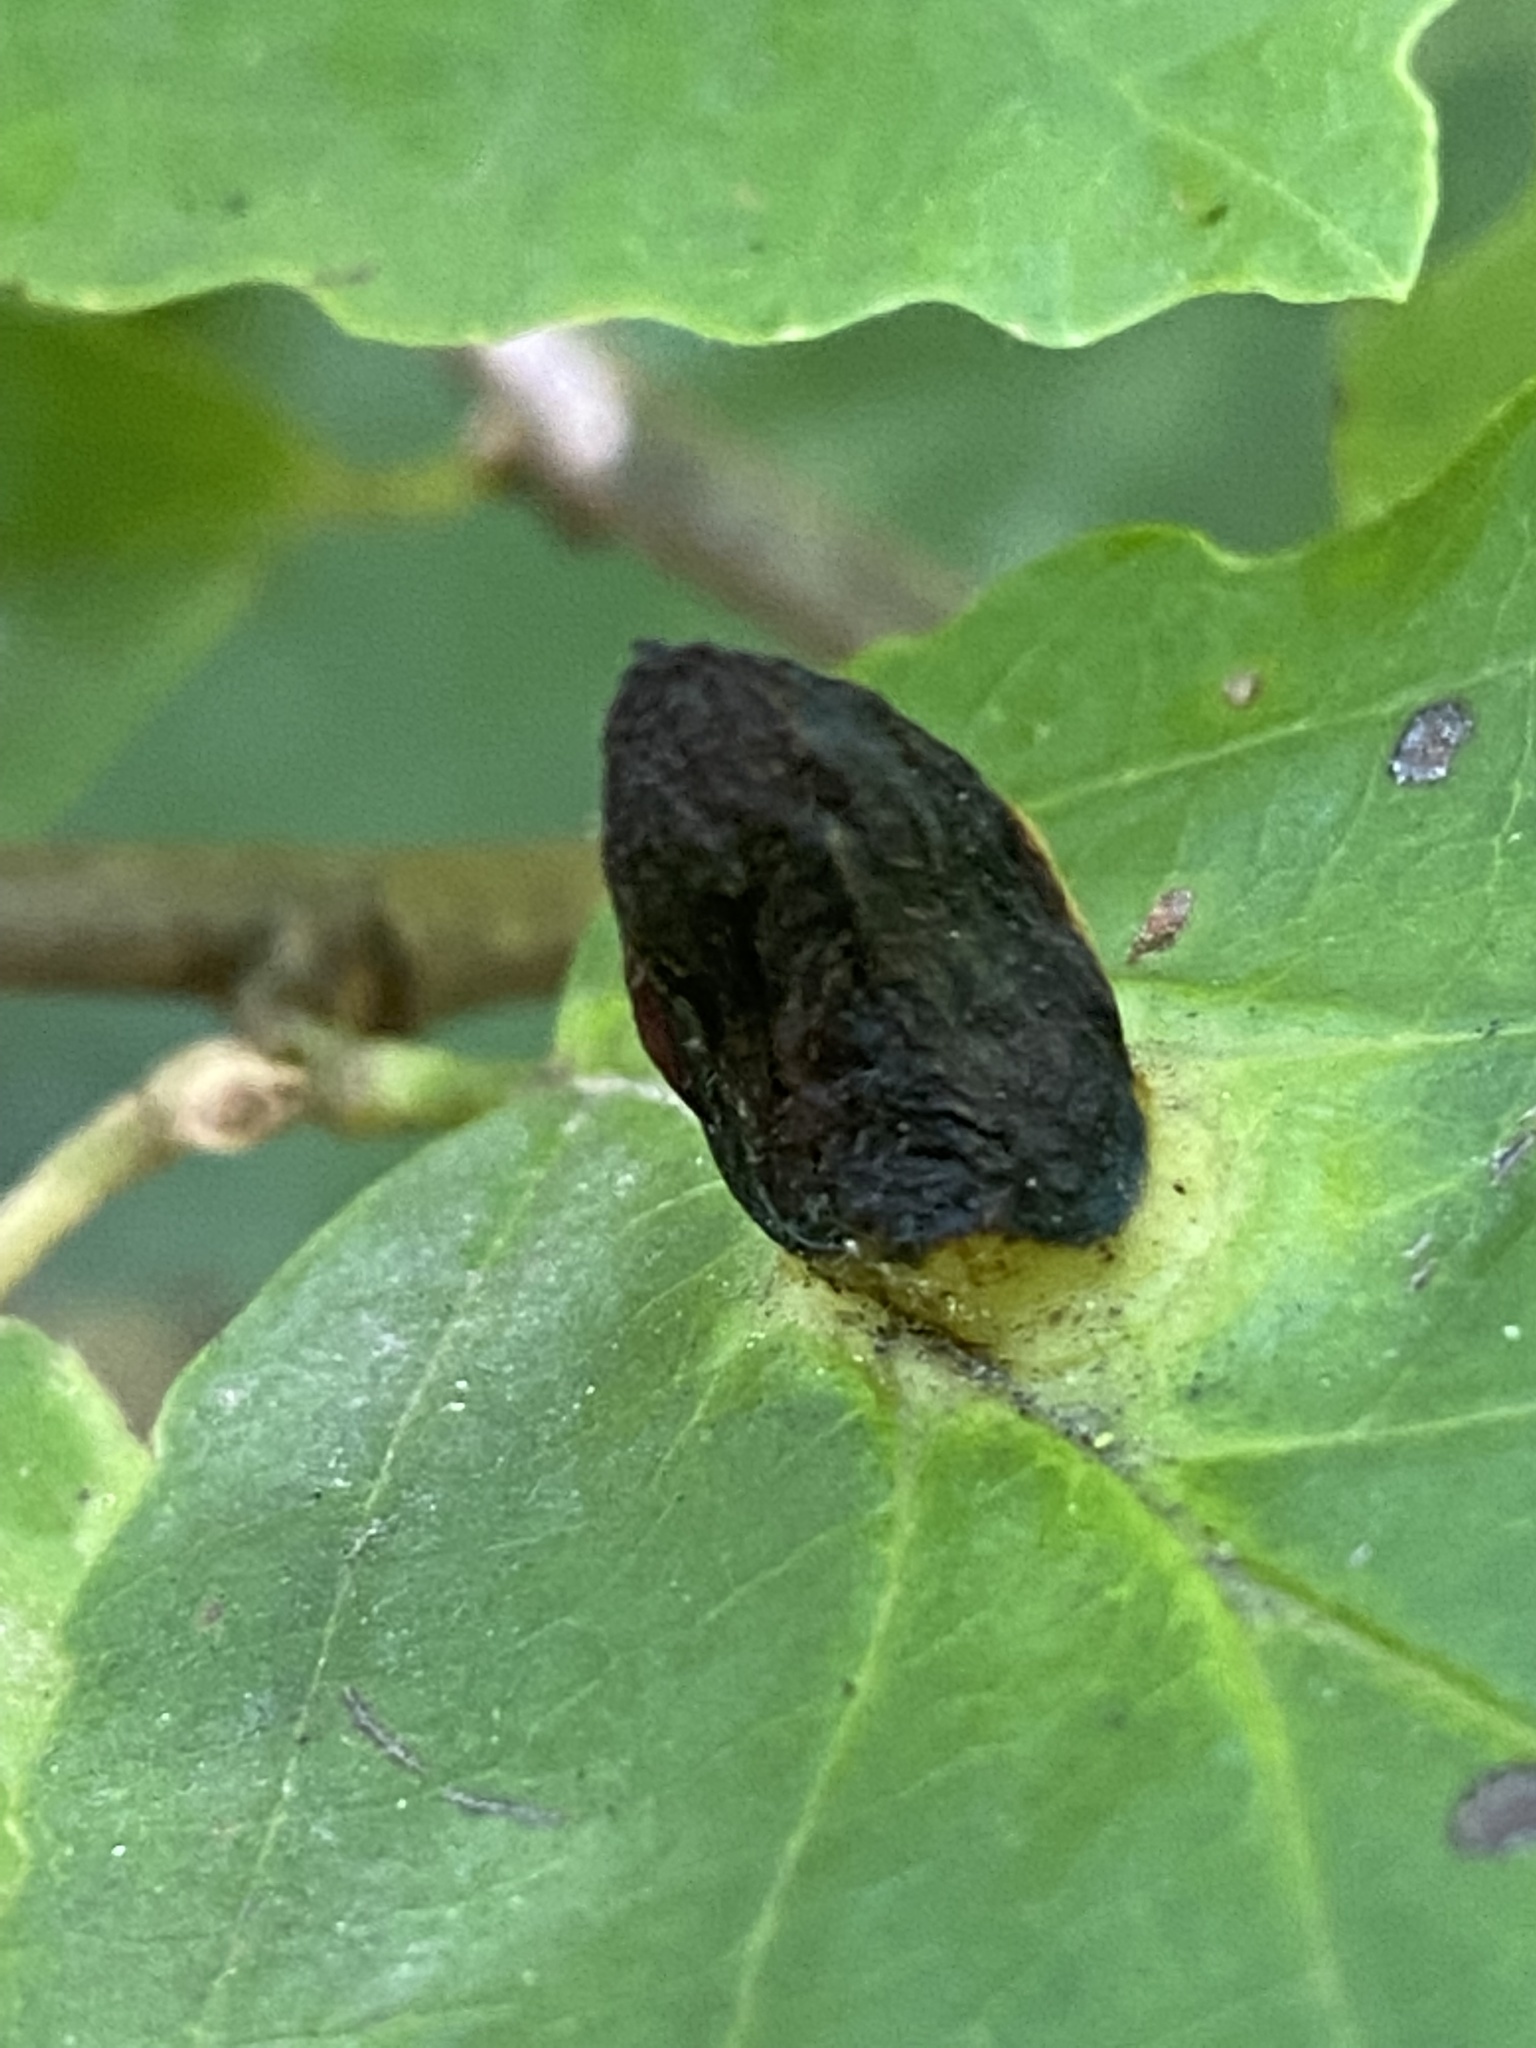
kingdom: Animalia
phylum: Arthropoda
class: Insecta
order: Hemiptera
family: Aphididae
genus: Hormaphis
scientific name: Hormaphis hamamelidis
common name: Witch-hazel cone gall aphid
